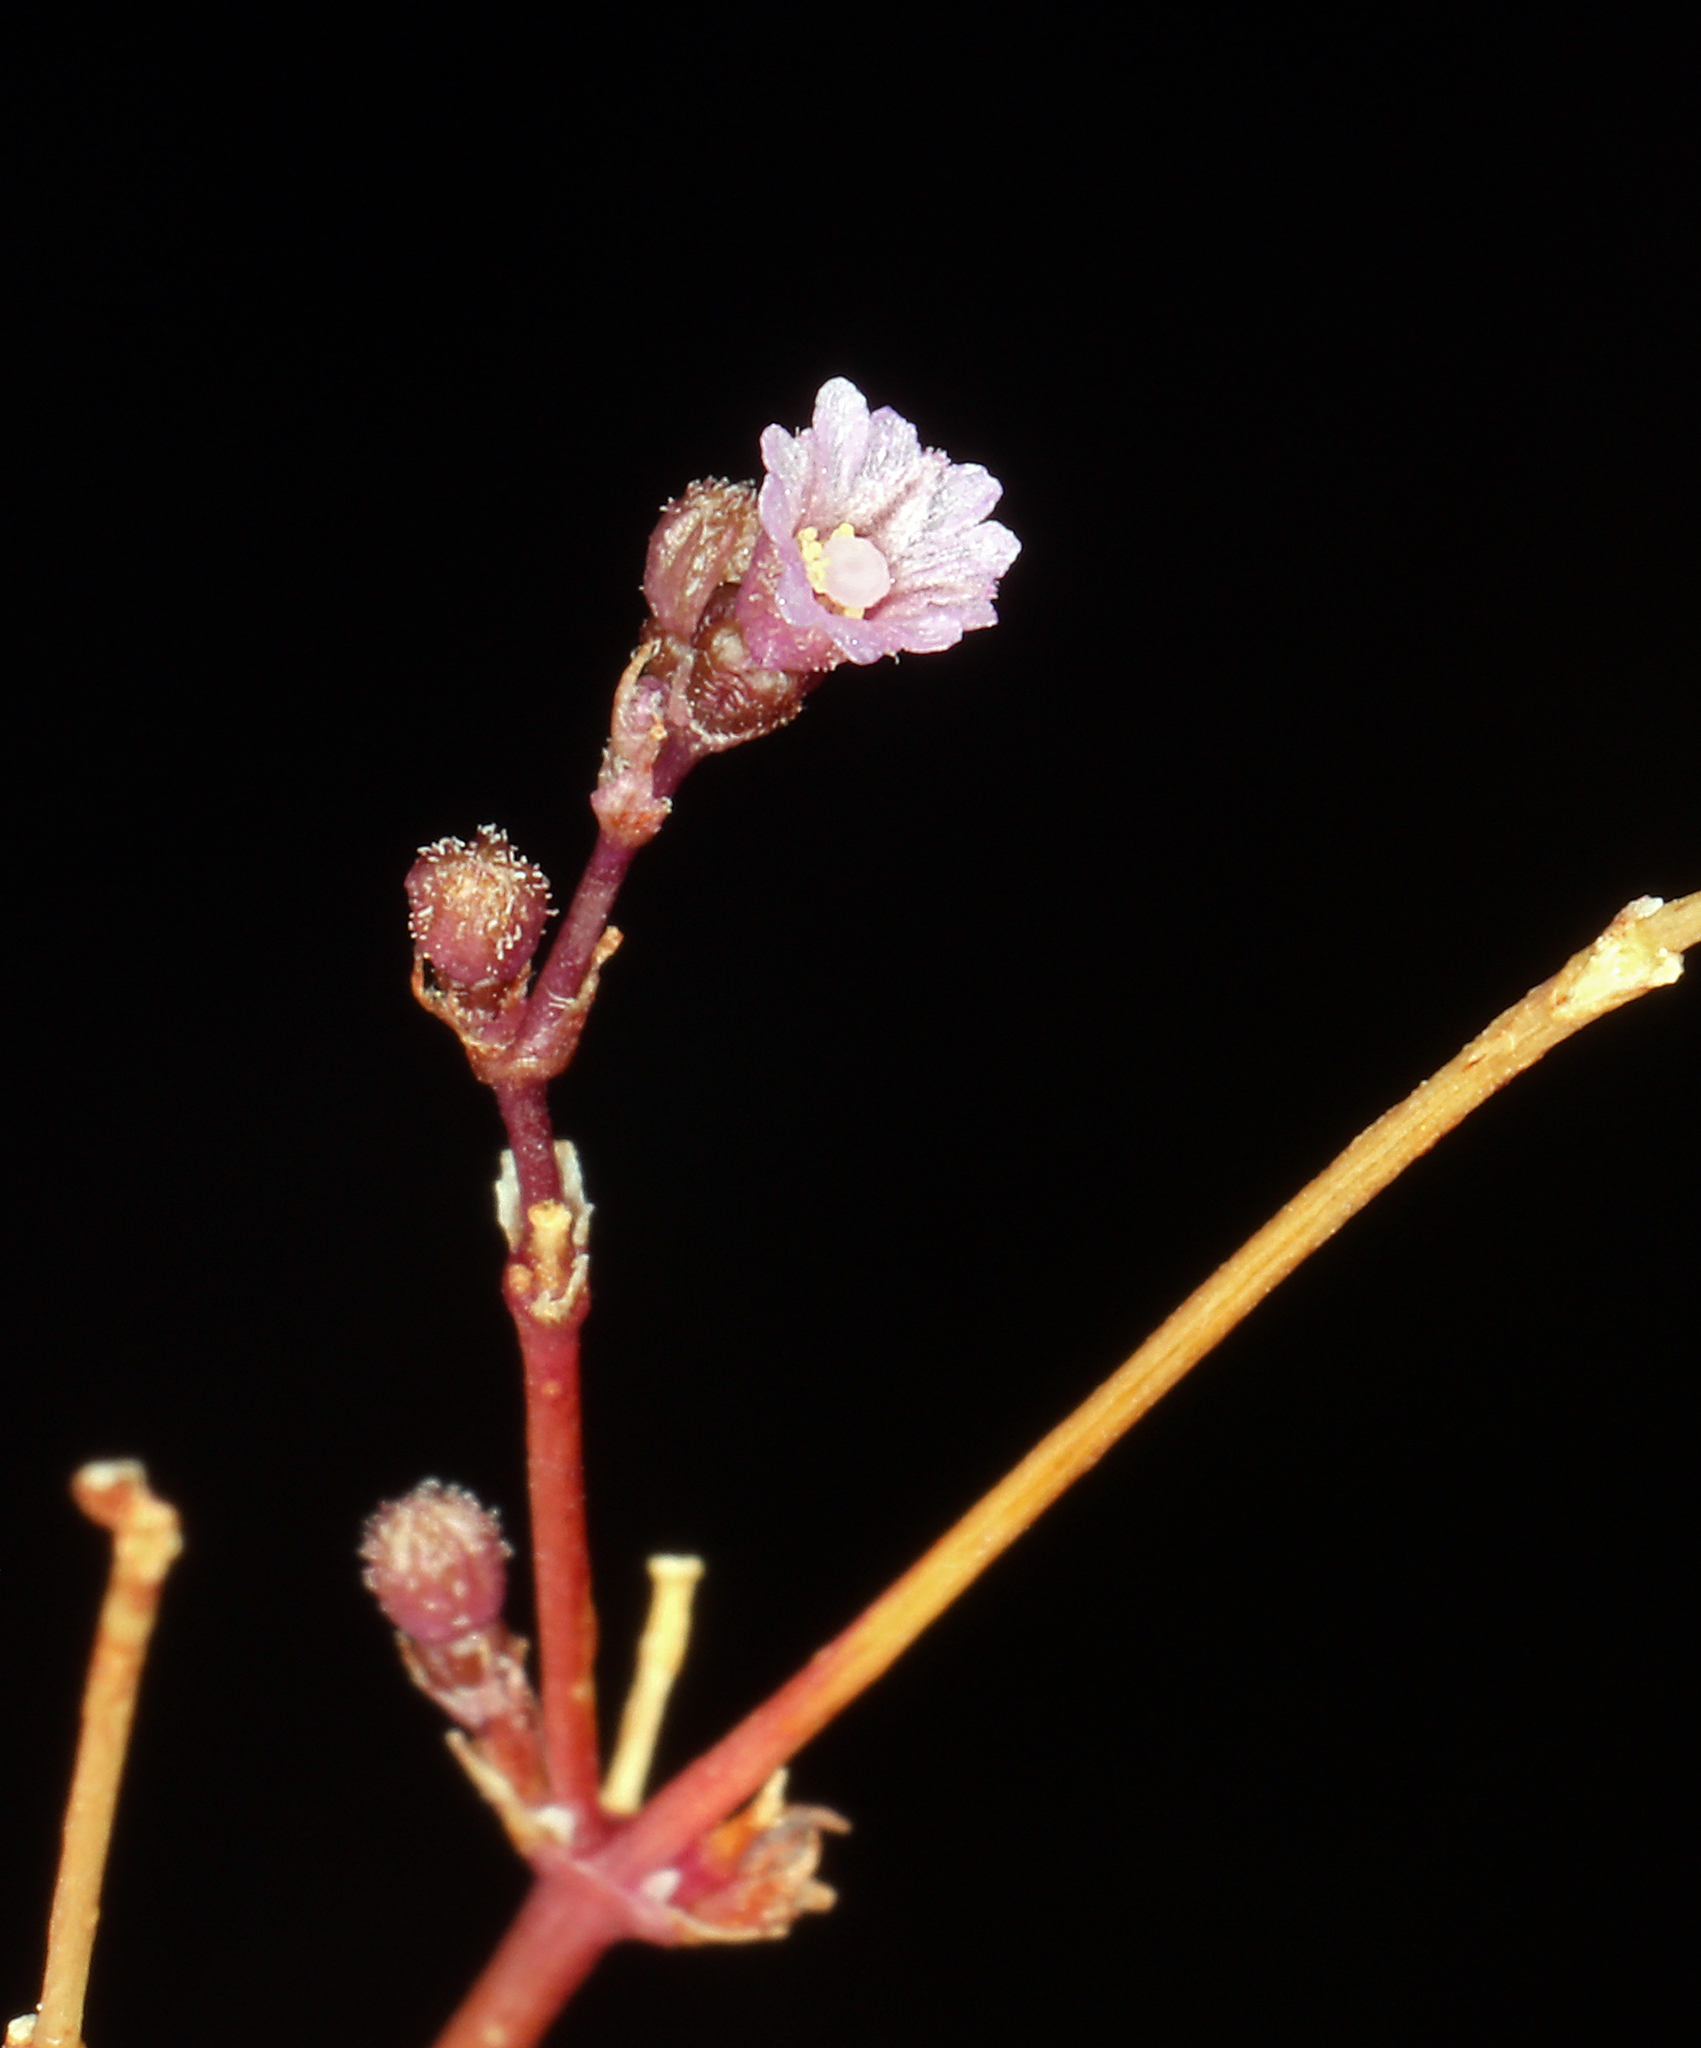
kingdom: Plantae
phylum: Tracheophyta
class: Magnoliopsida
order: Caryophyllales
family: Nyctaginaceae
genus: Boerhavia
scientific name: Boerhavia coulteri
